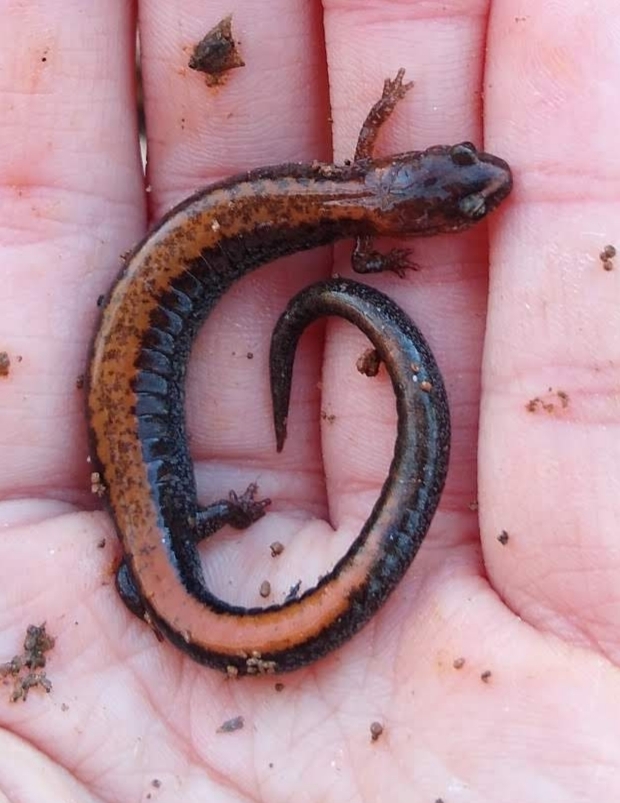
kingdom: Animalia
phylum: Chordata
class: Amphibia
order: Caudata
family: Plethodontidae
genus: Plethodon
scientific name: Plethodon cinereus
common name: Redback salamander
